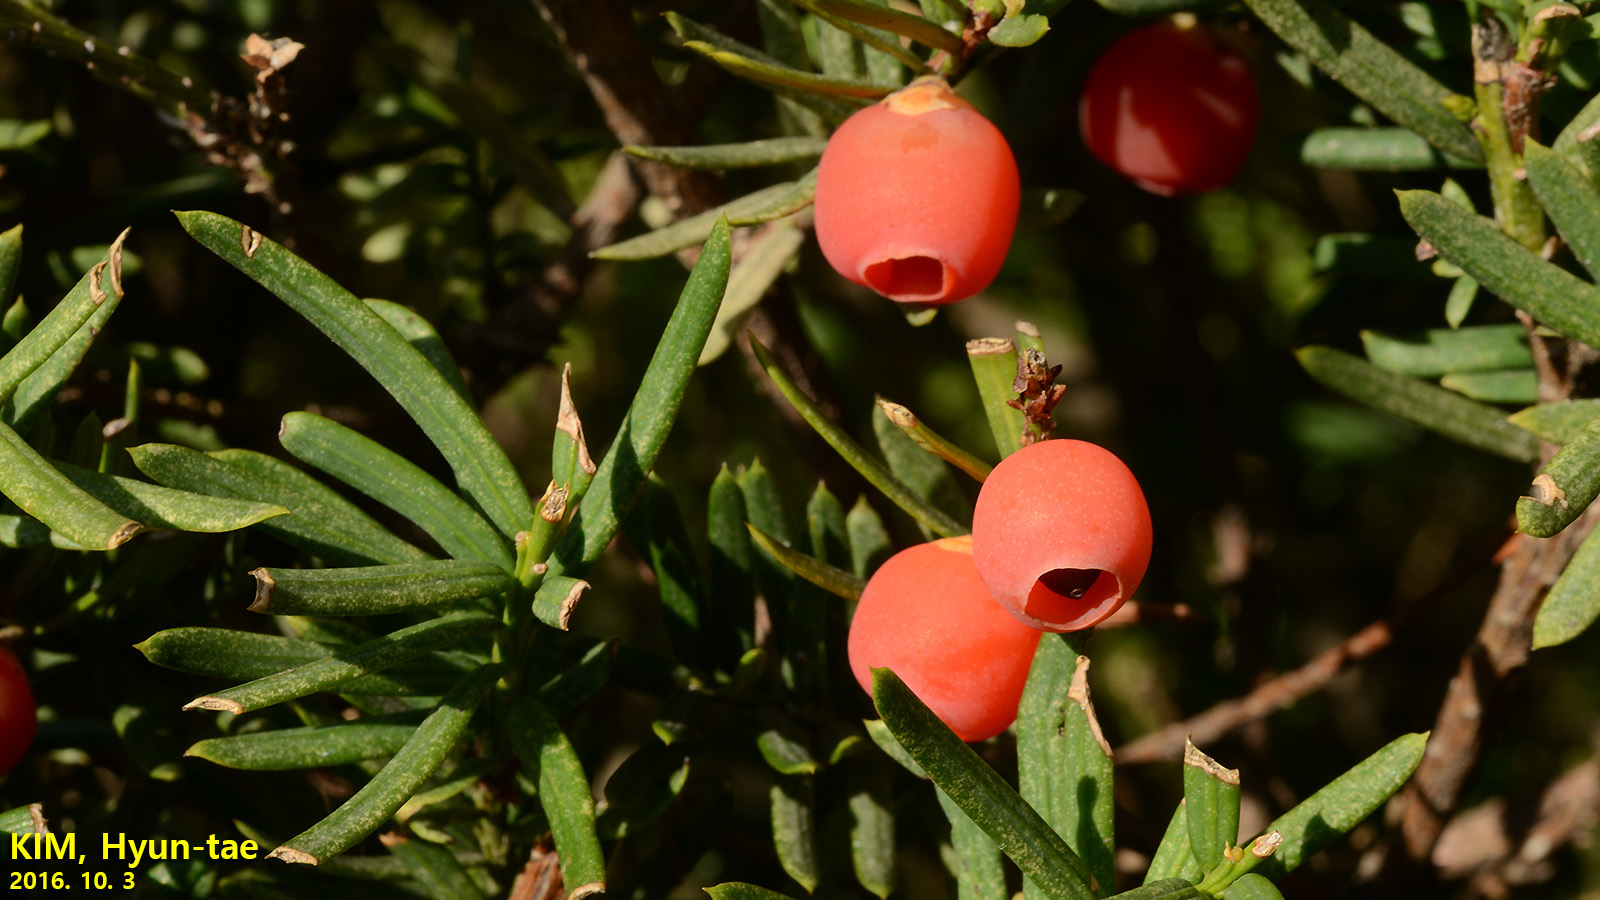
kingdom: Plantae
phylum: Tracheophyta
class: Pinopsida
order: Pinales
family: Taxaceae
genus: Taxus
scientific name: Taxus cuspidata
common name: Japanese yew
